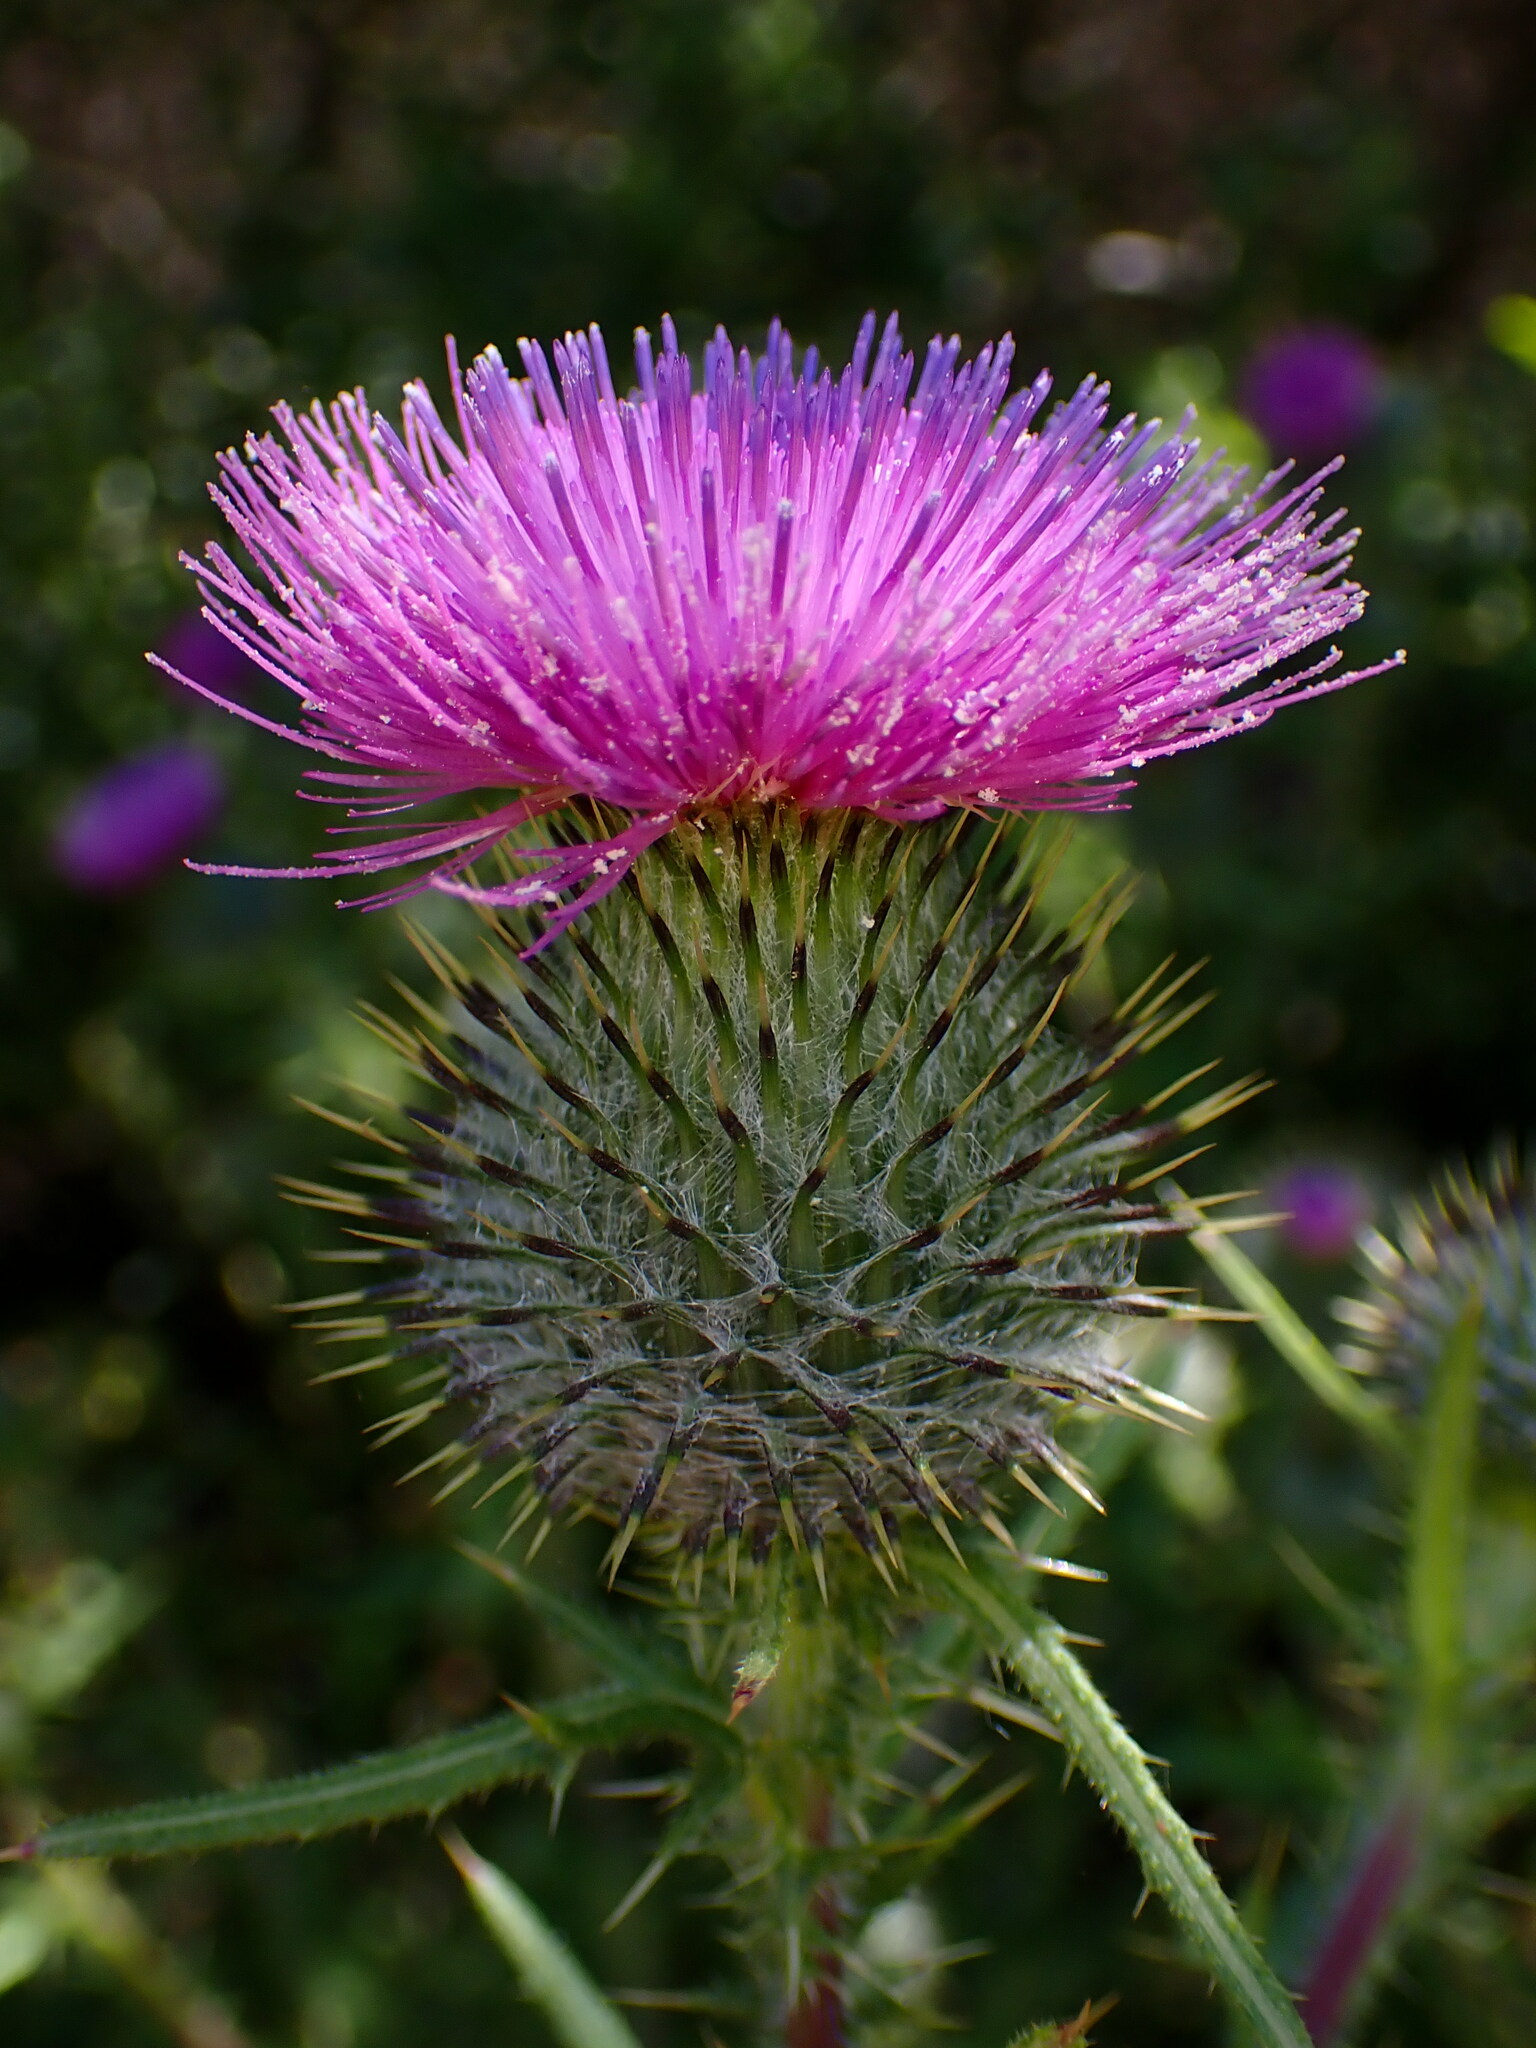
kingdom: Plantae
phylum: Tracheophyta
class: Magnoliopsida
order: Asterales
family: Asteraceae
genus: Cirsium
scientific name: Cirsium vulgare
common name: Bull thistle
